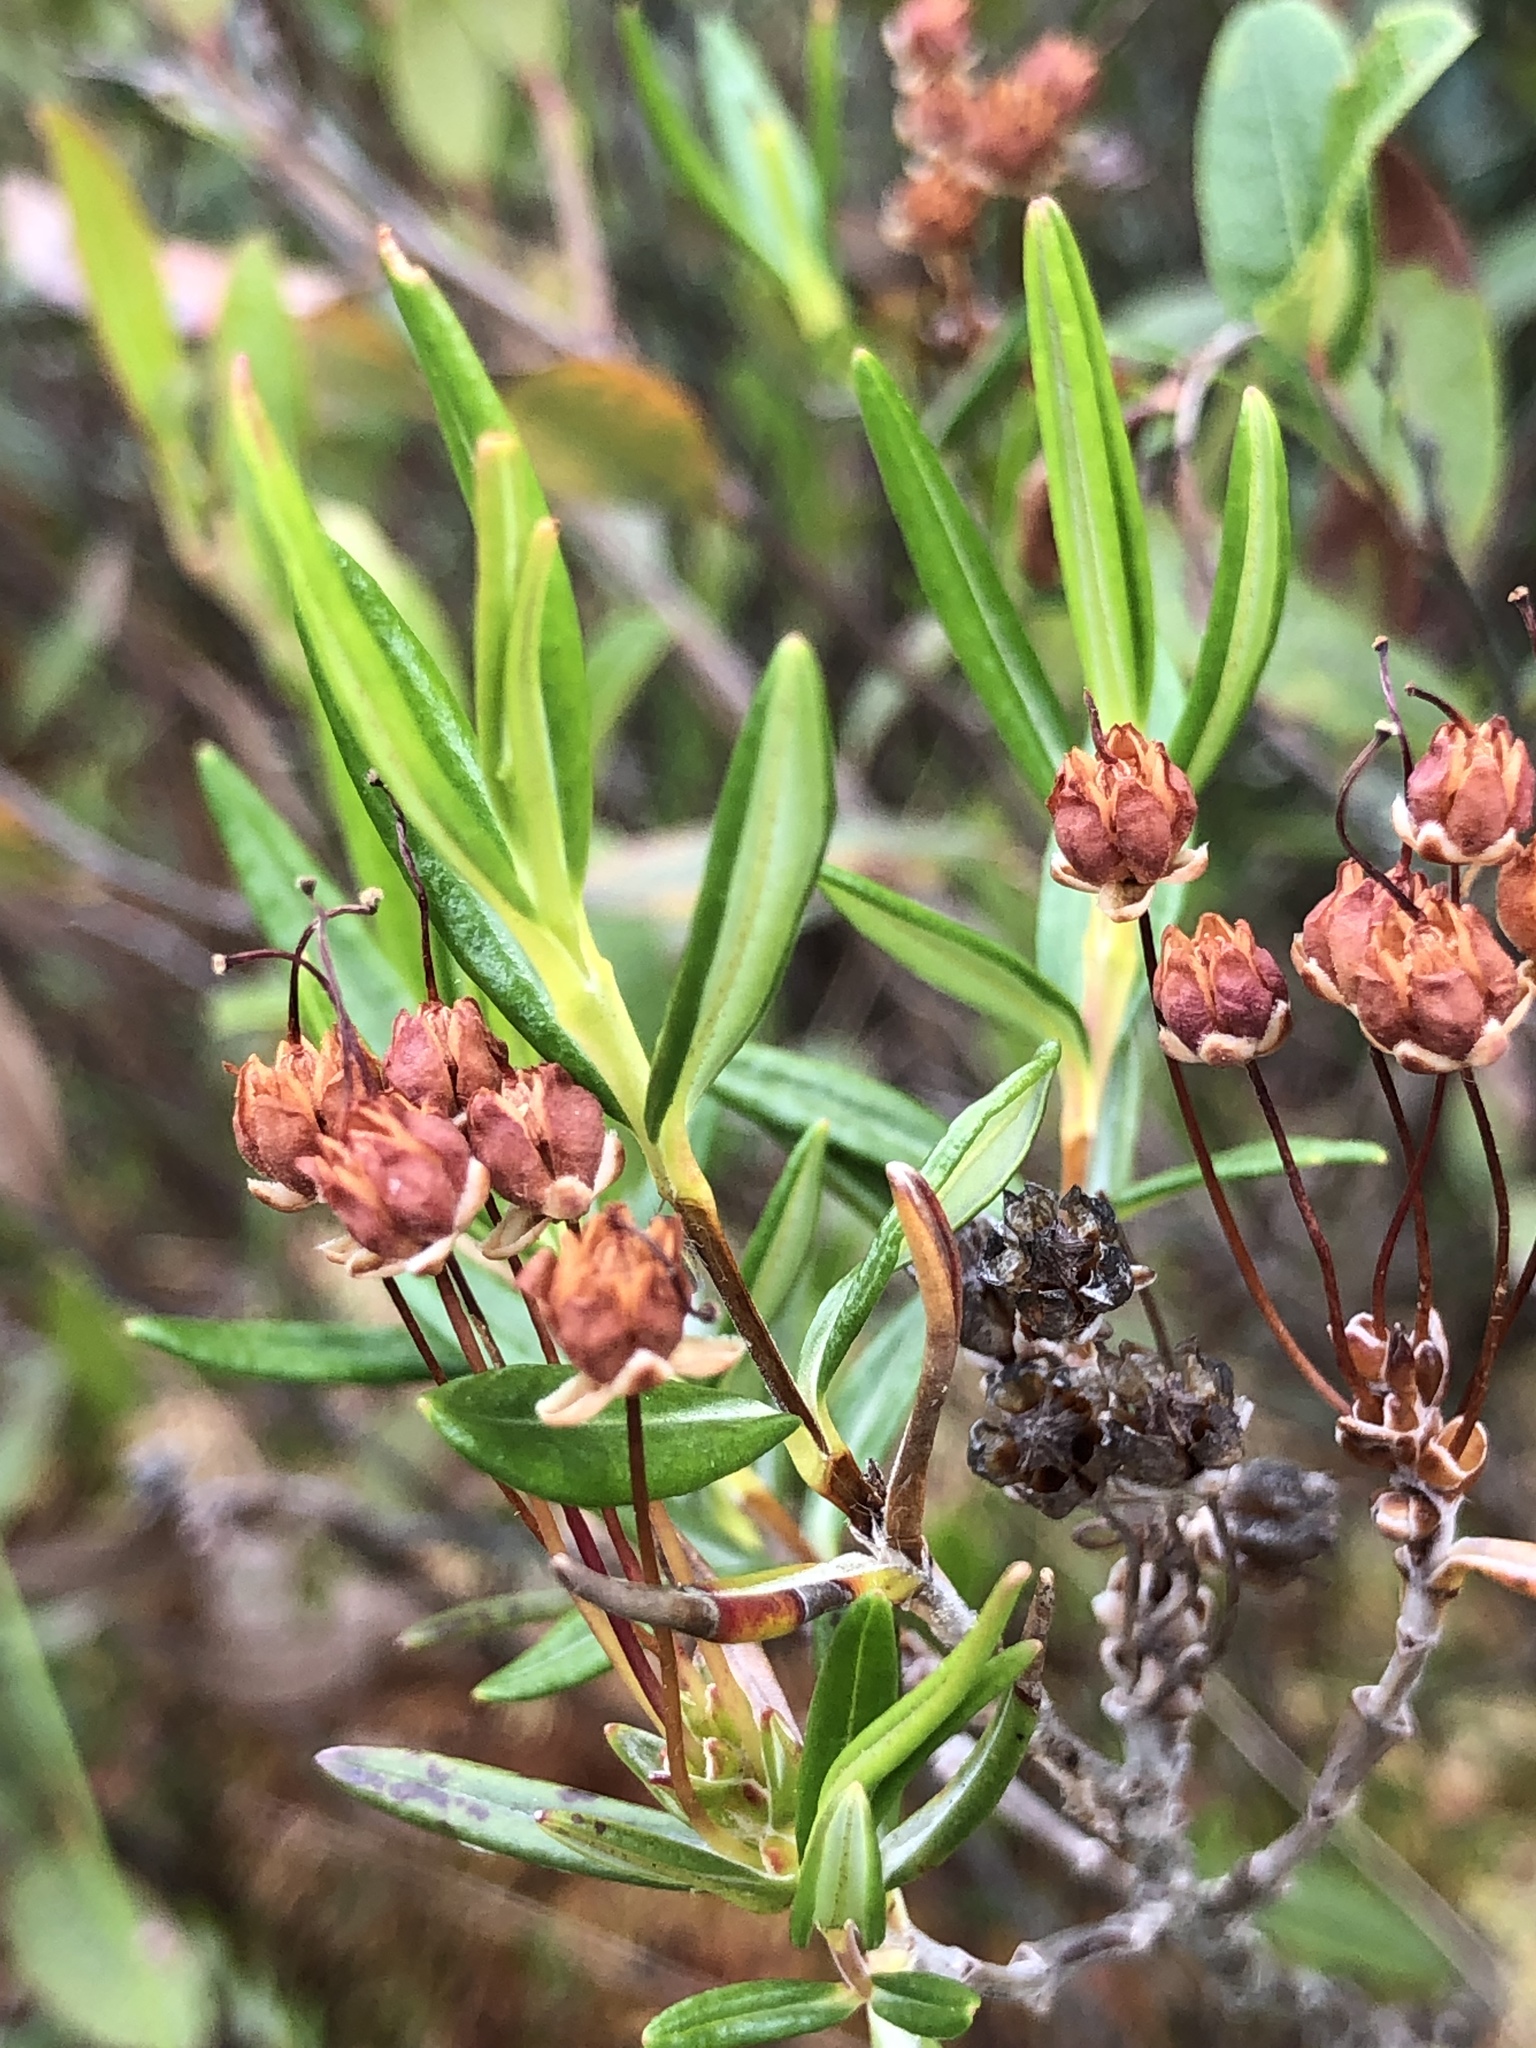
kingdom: Plantae
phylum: Tracheophyta
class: Magnoliopsida
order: Ericales
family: Ericaceae
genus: Kalmia
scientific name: Kalmia polifolia
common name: Bog-laurel
